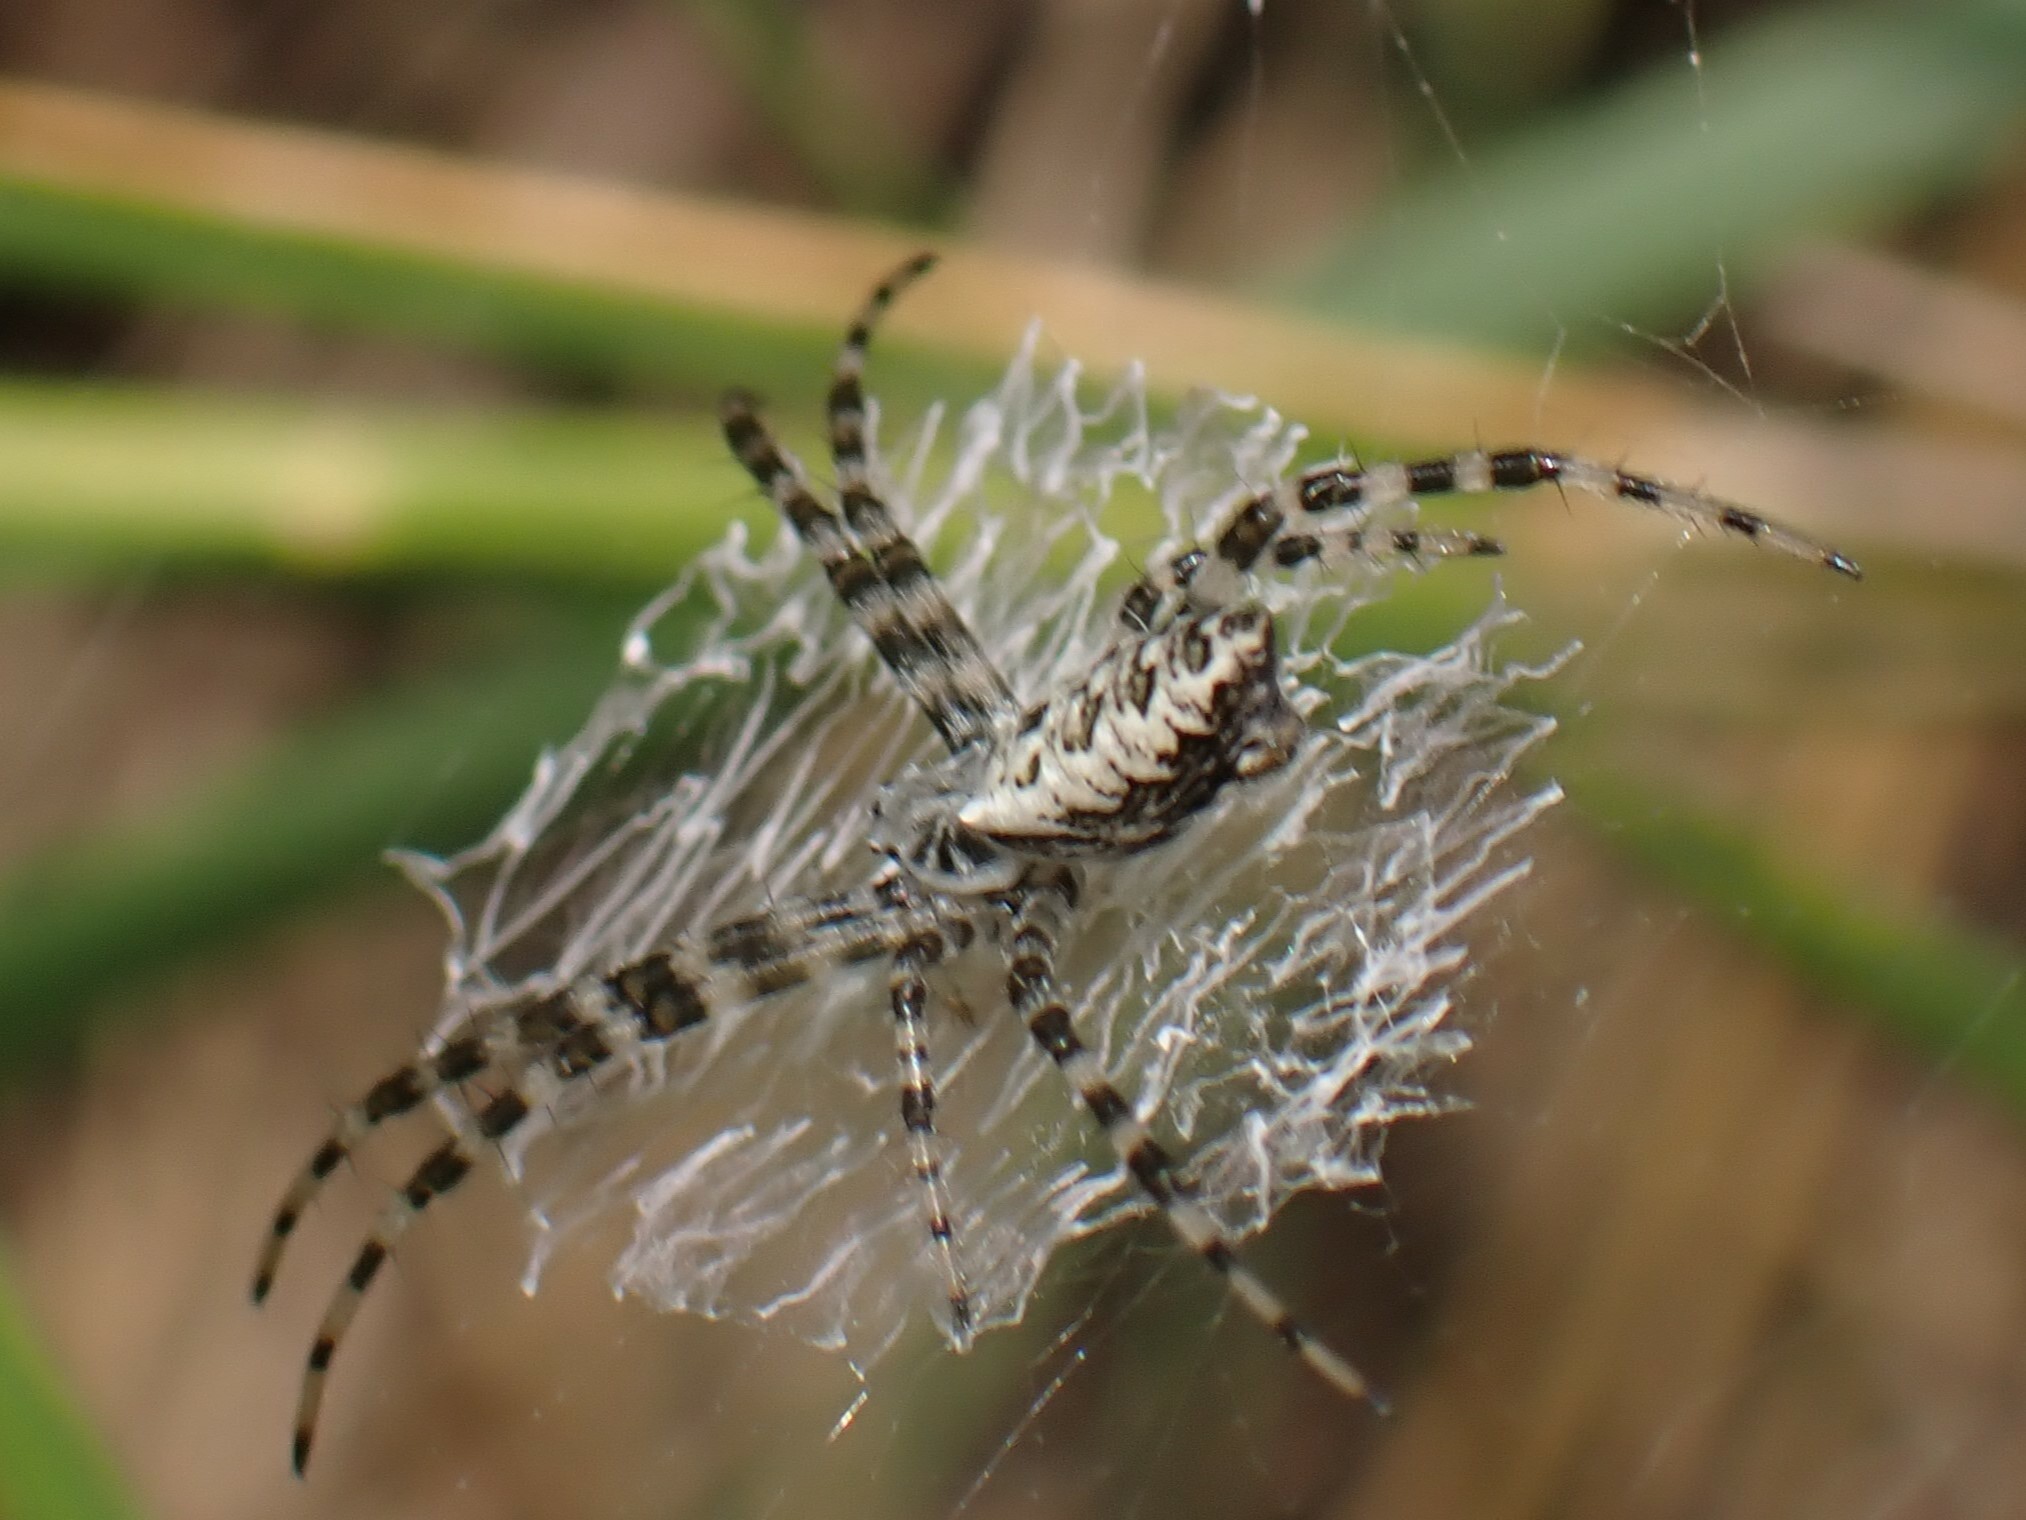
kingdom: Animalia
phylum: Arthropoda
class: Arachnida
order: Araneae
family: Araneidae
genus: Argiope
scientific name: Argiope aurantia
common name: Orb weavers
